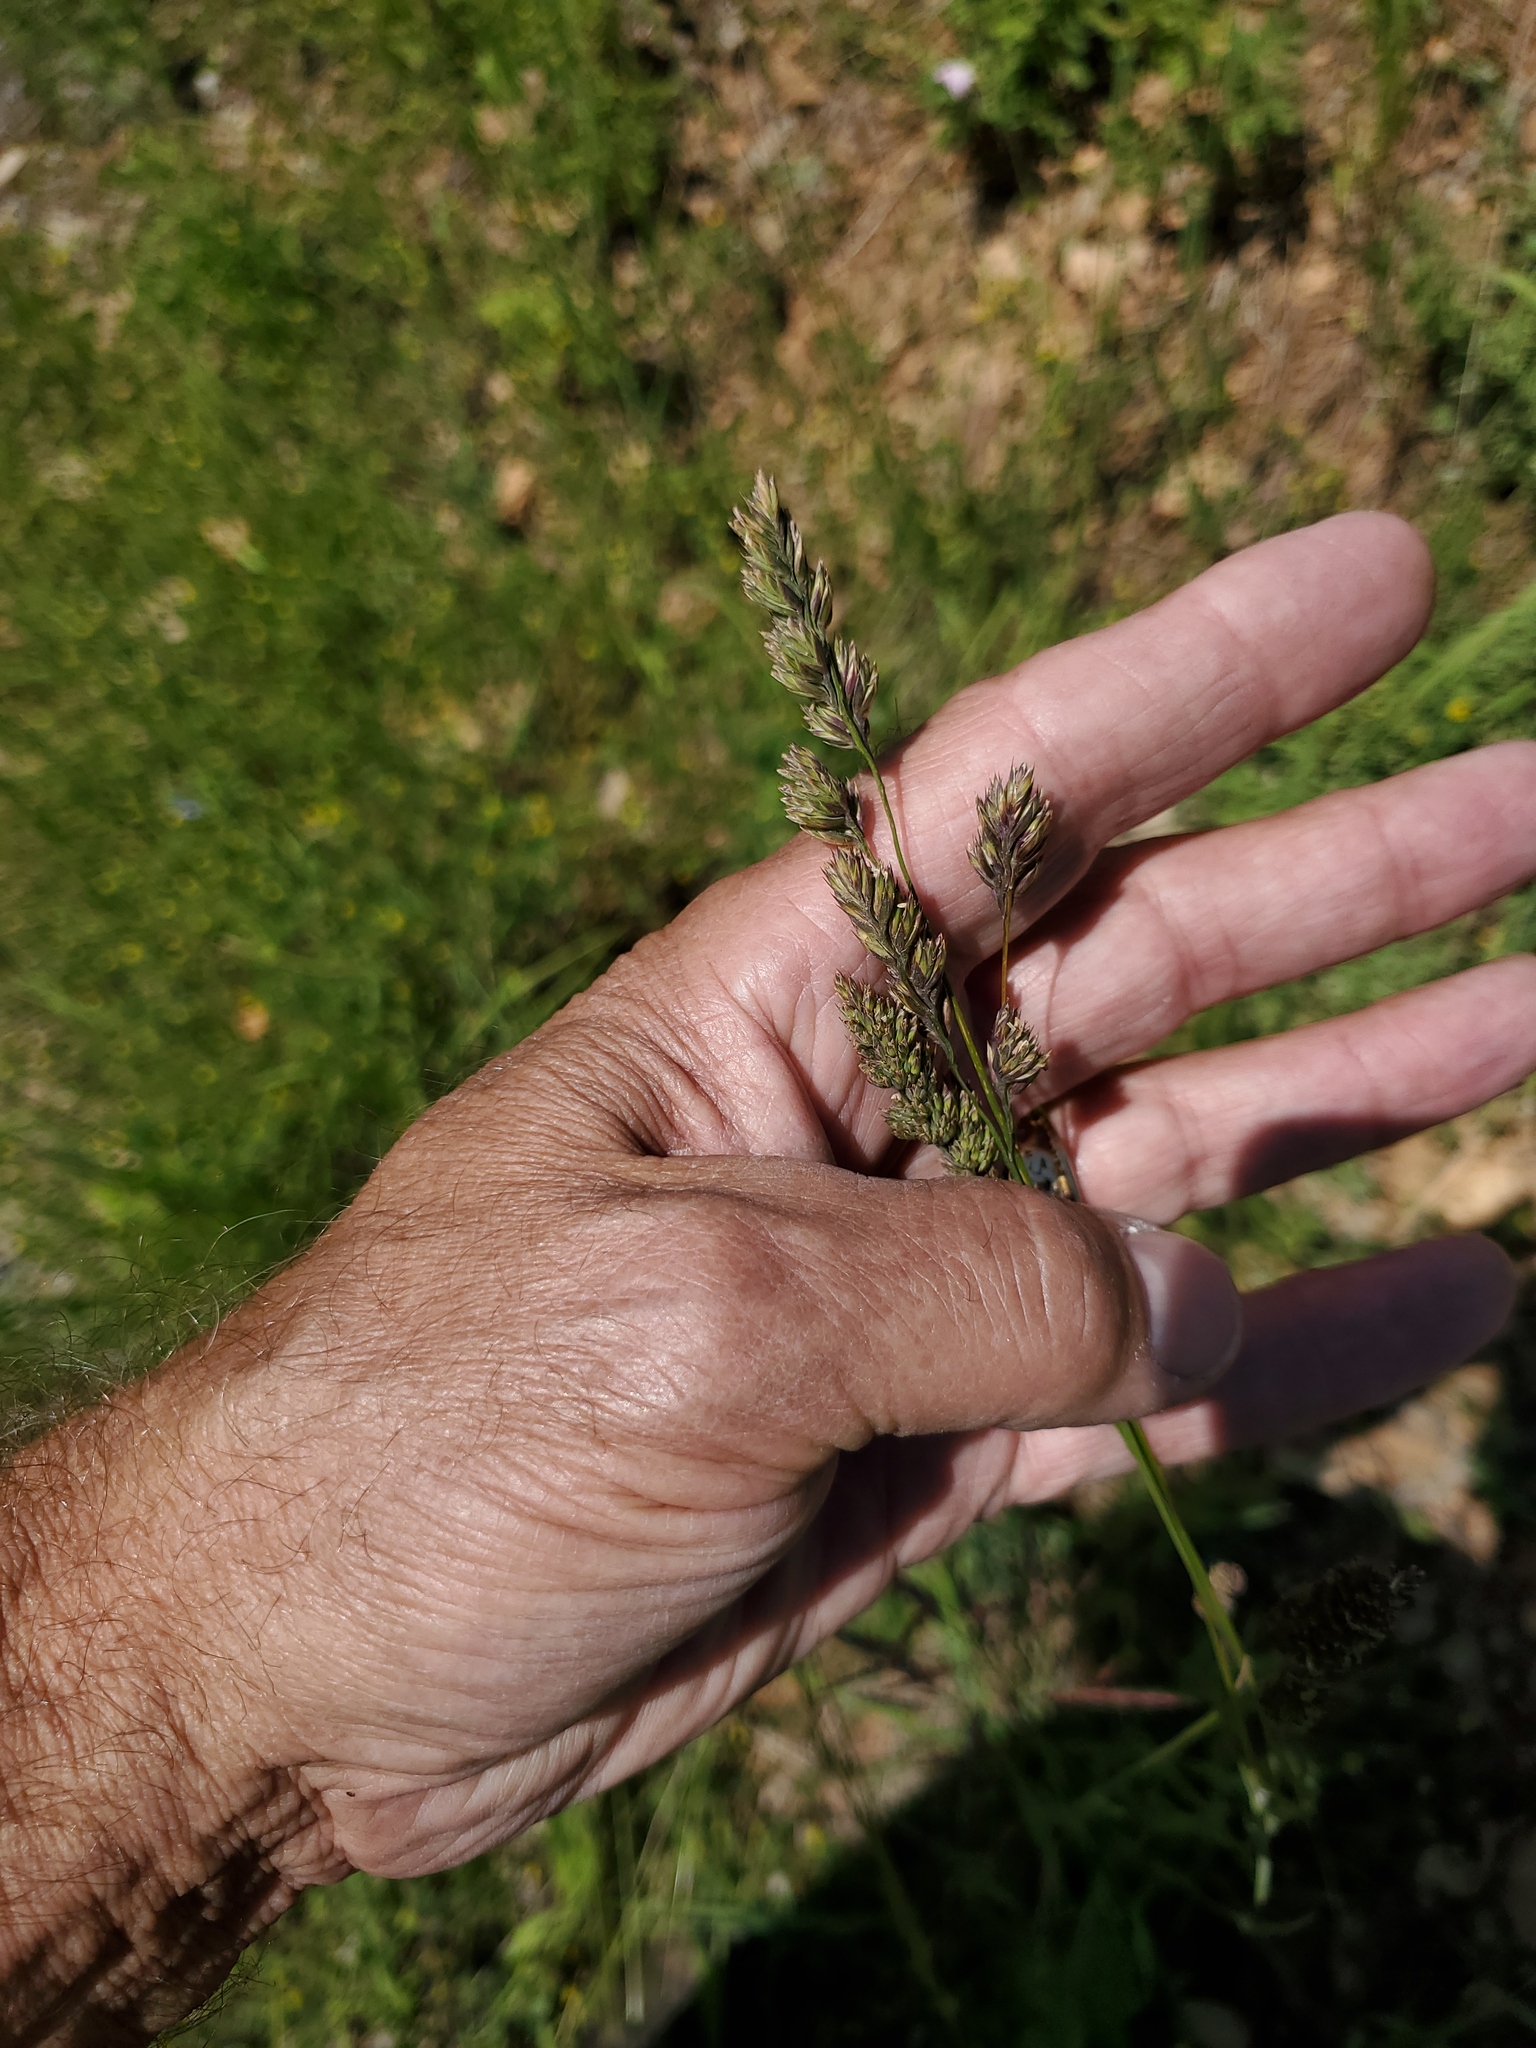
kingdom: Plantae
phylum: Tracheophyta
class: Liliopsida
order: Poales
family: Poaceae
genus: Dactylis
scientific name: Dactylis glomerata
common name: Orchardgrass
